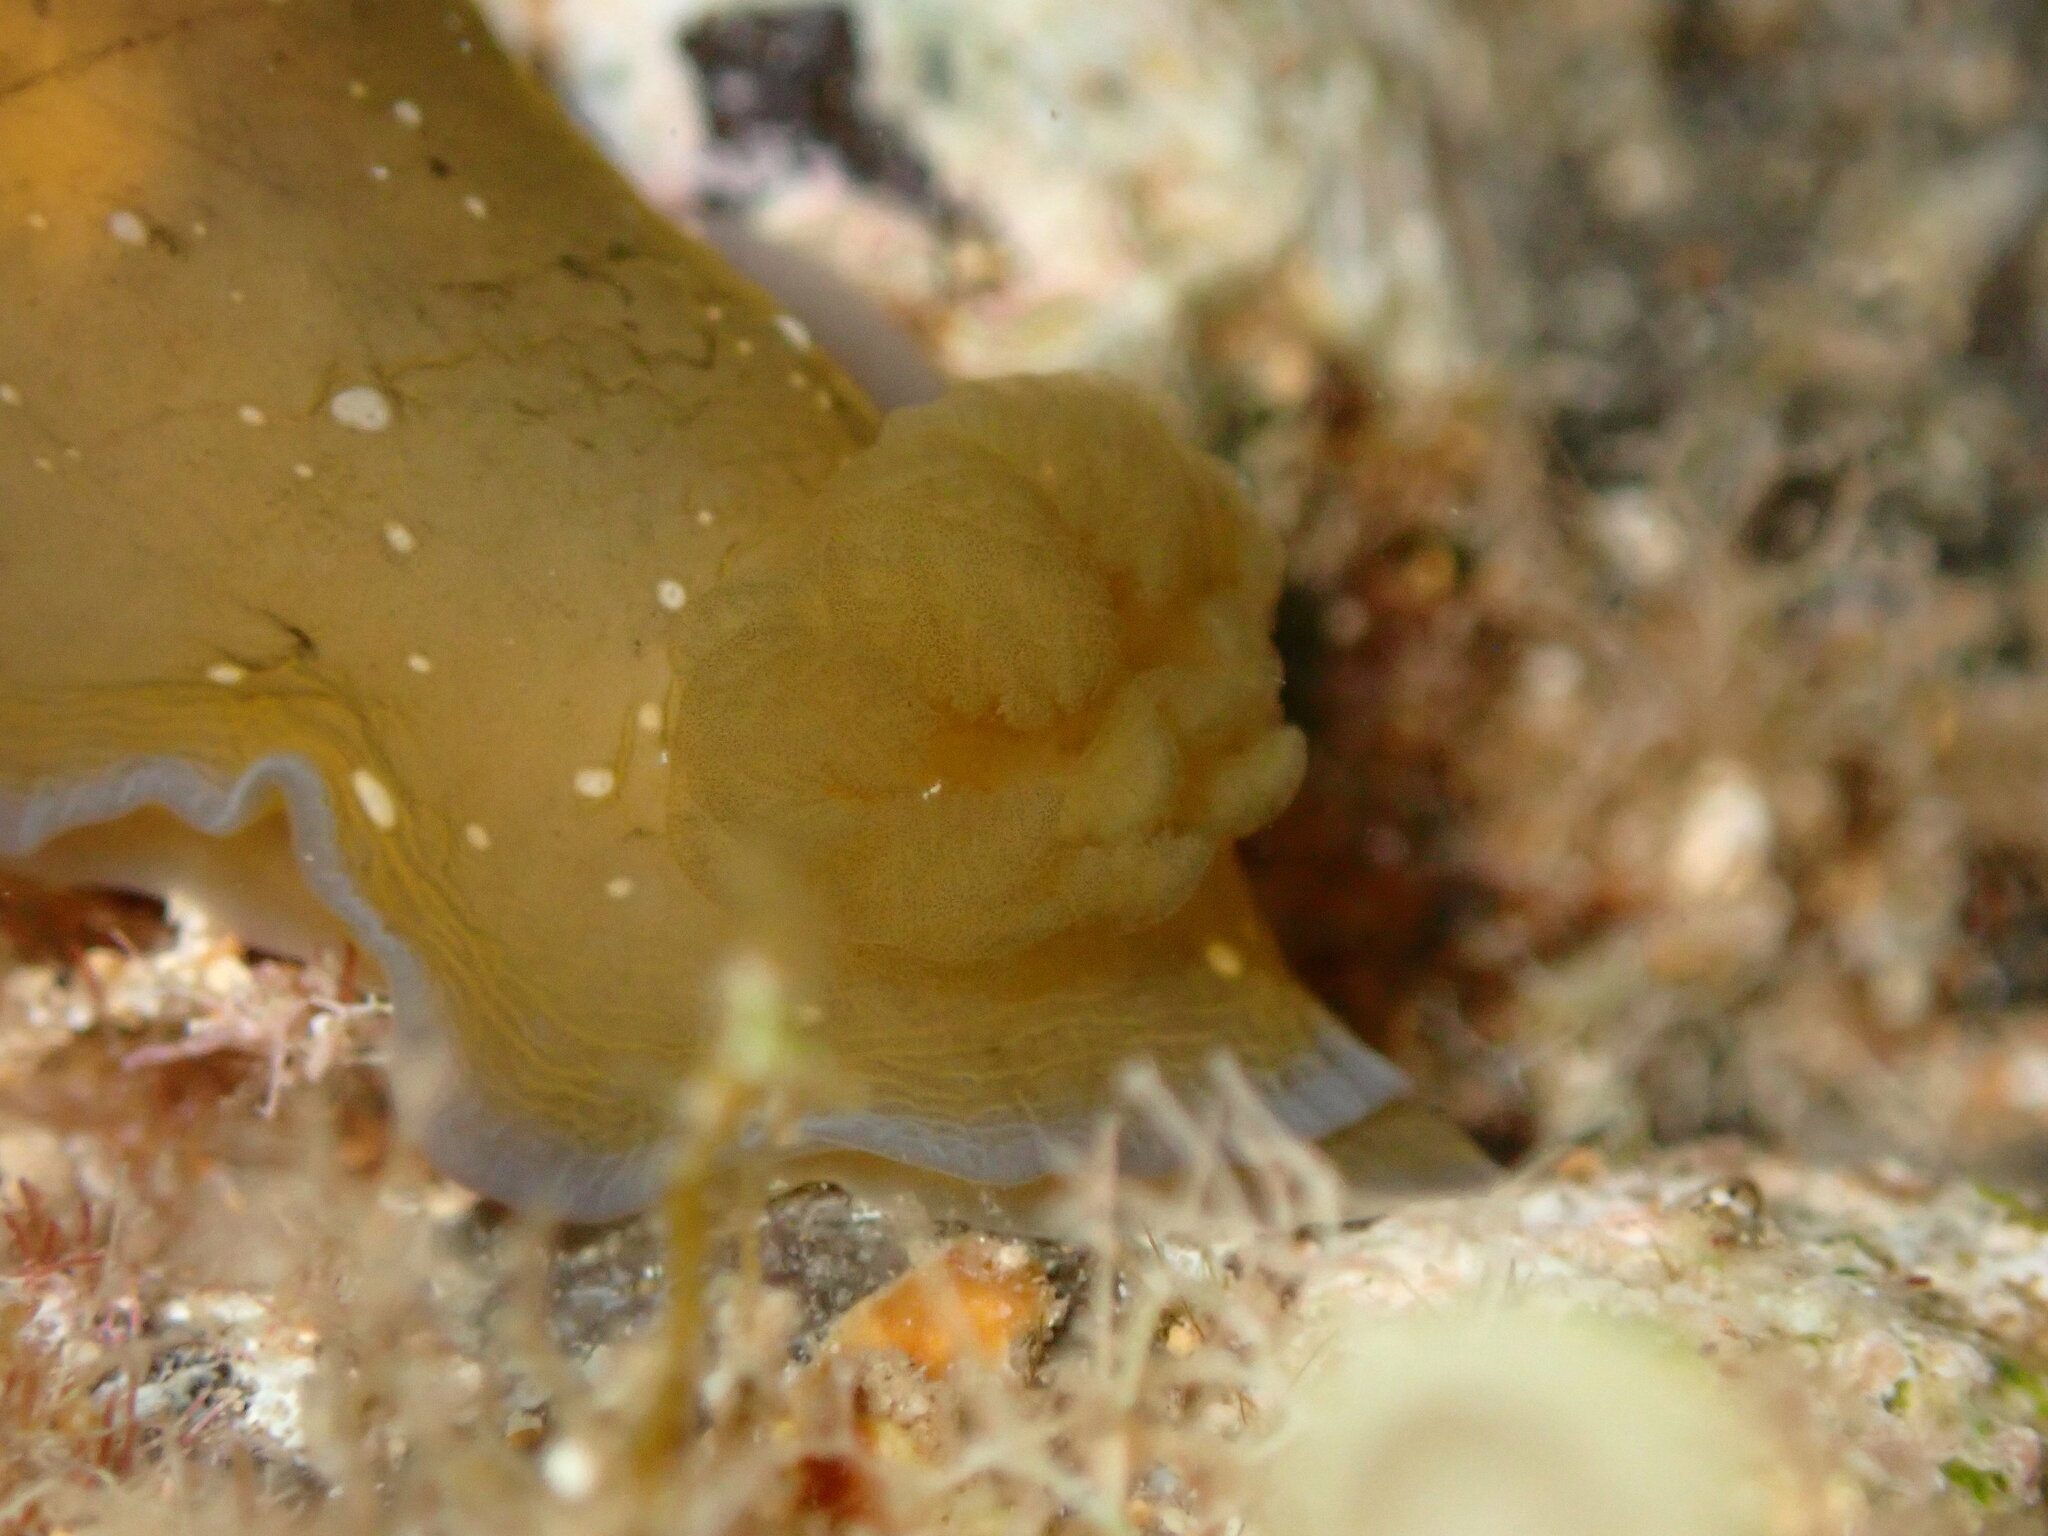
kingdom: Animalia
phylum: Mollusca
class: Gastropoda
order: Nudibranchia
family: Dendrodorididae
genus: Dendrodoris
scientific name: Dendrodoris nigra
